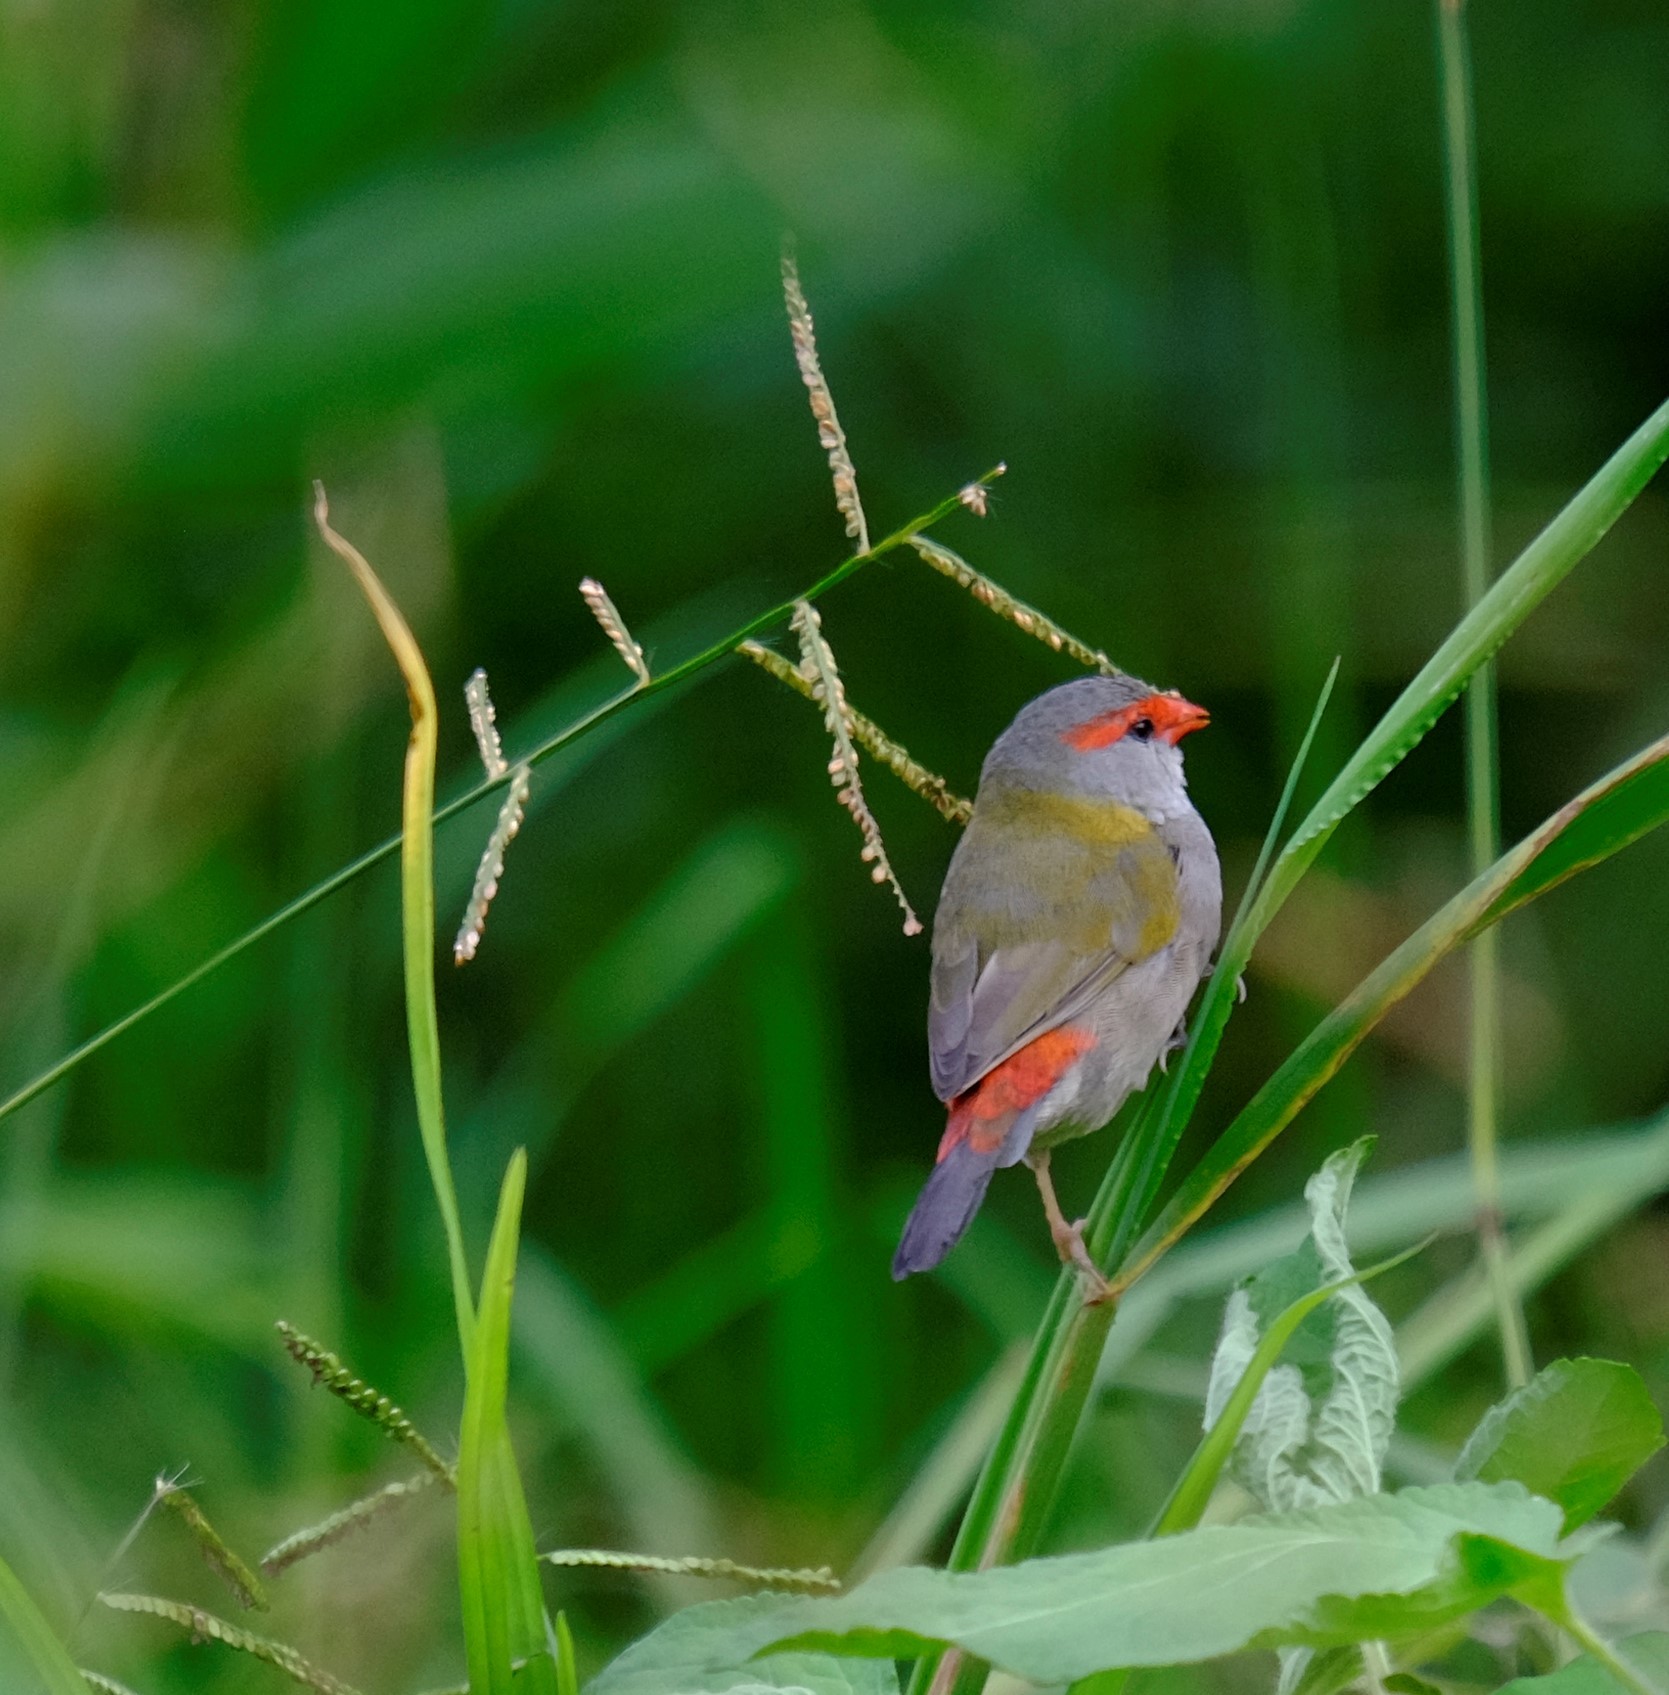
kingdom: Animalia
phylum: Chordata
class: Aves
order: Passeriformes
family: Estrildidae
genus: Neochmia
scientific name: Neochmia temporalis
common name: Red-browed finch
